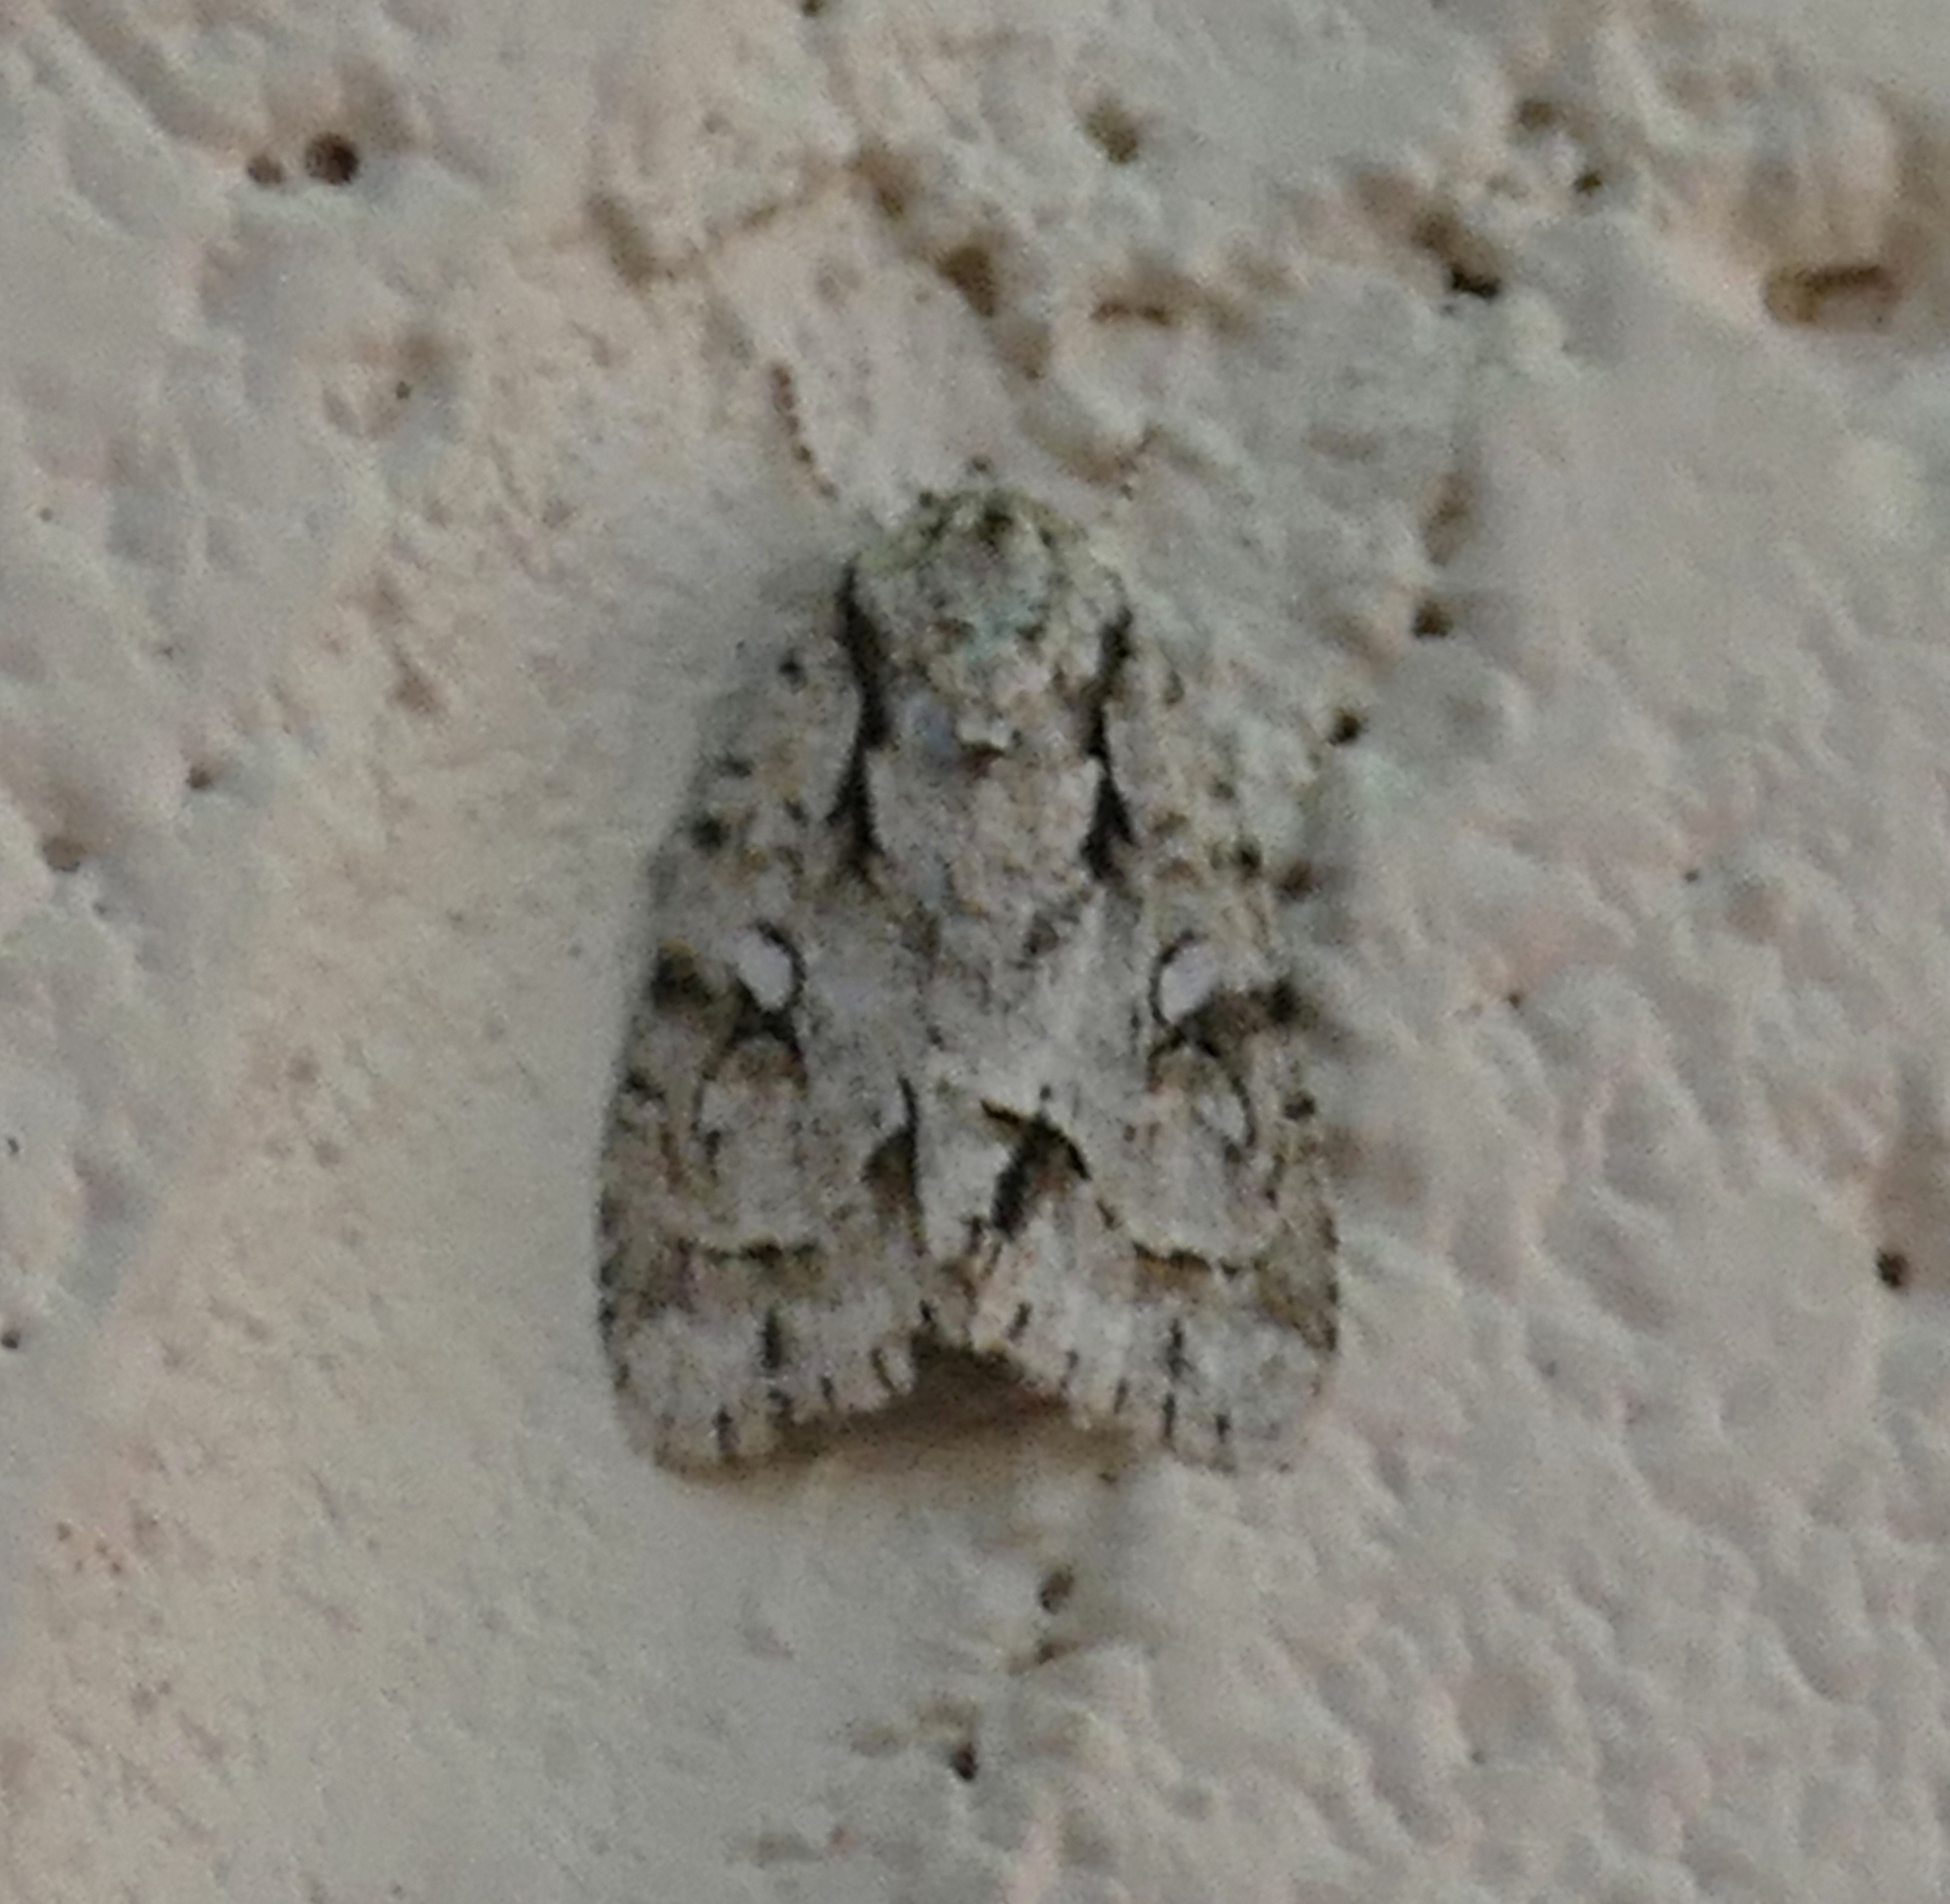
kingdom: Animalia
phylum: Arthropoda
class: Insecta
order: Lepidoptera
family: Noctuidae
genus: Acronicta
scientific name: Acronicta vinnula
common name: Delightful dagger
